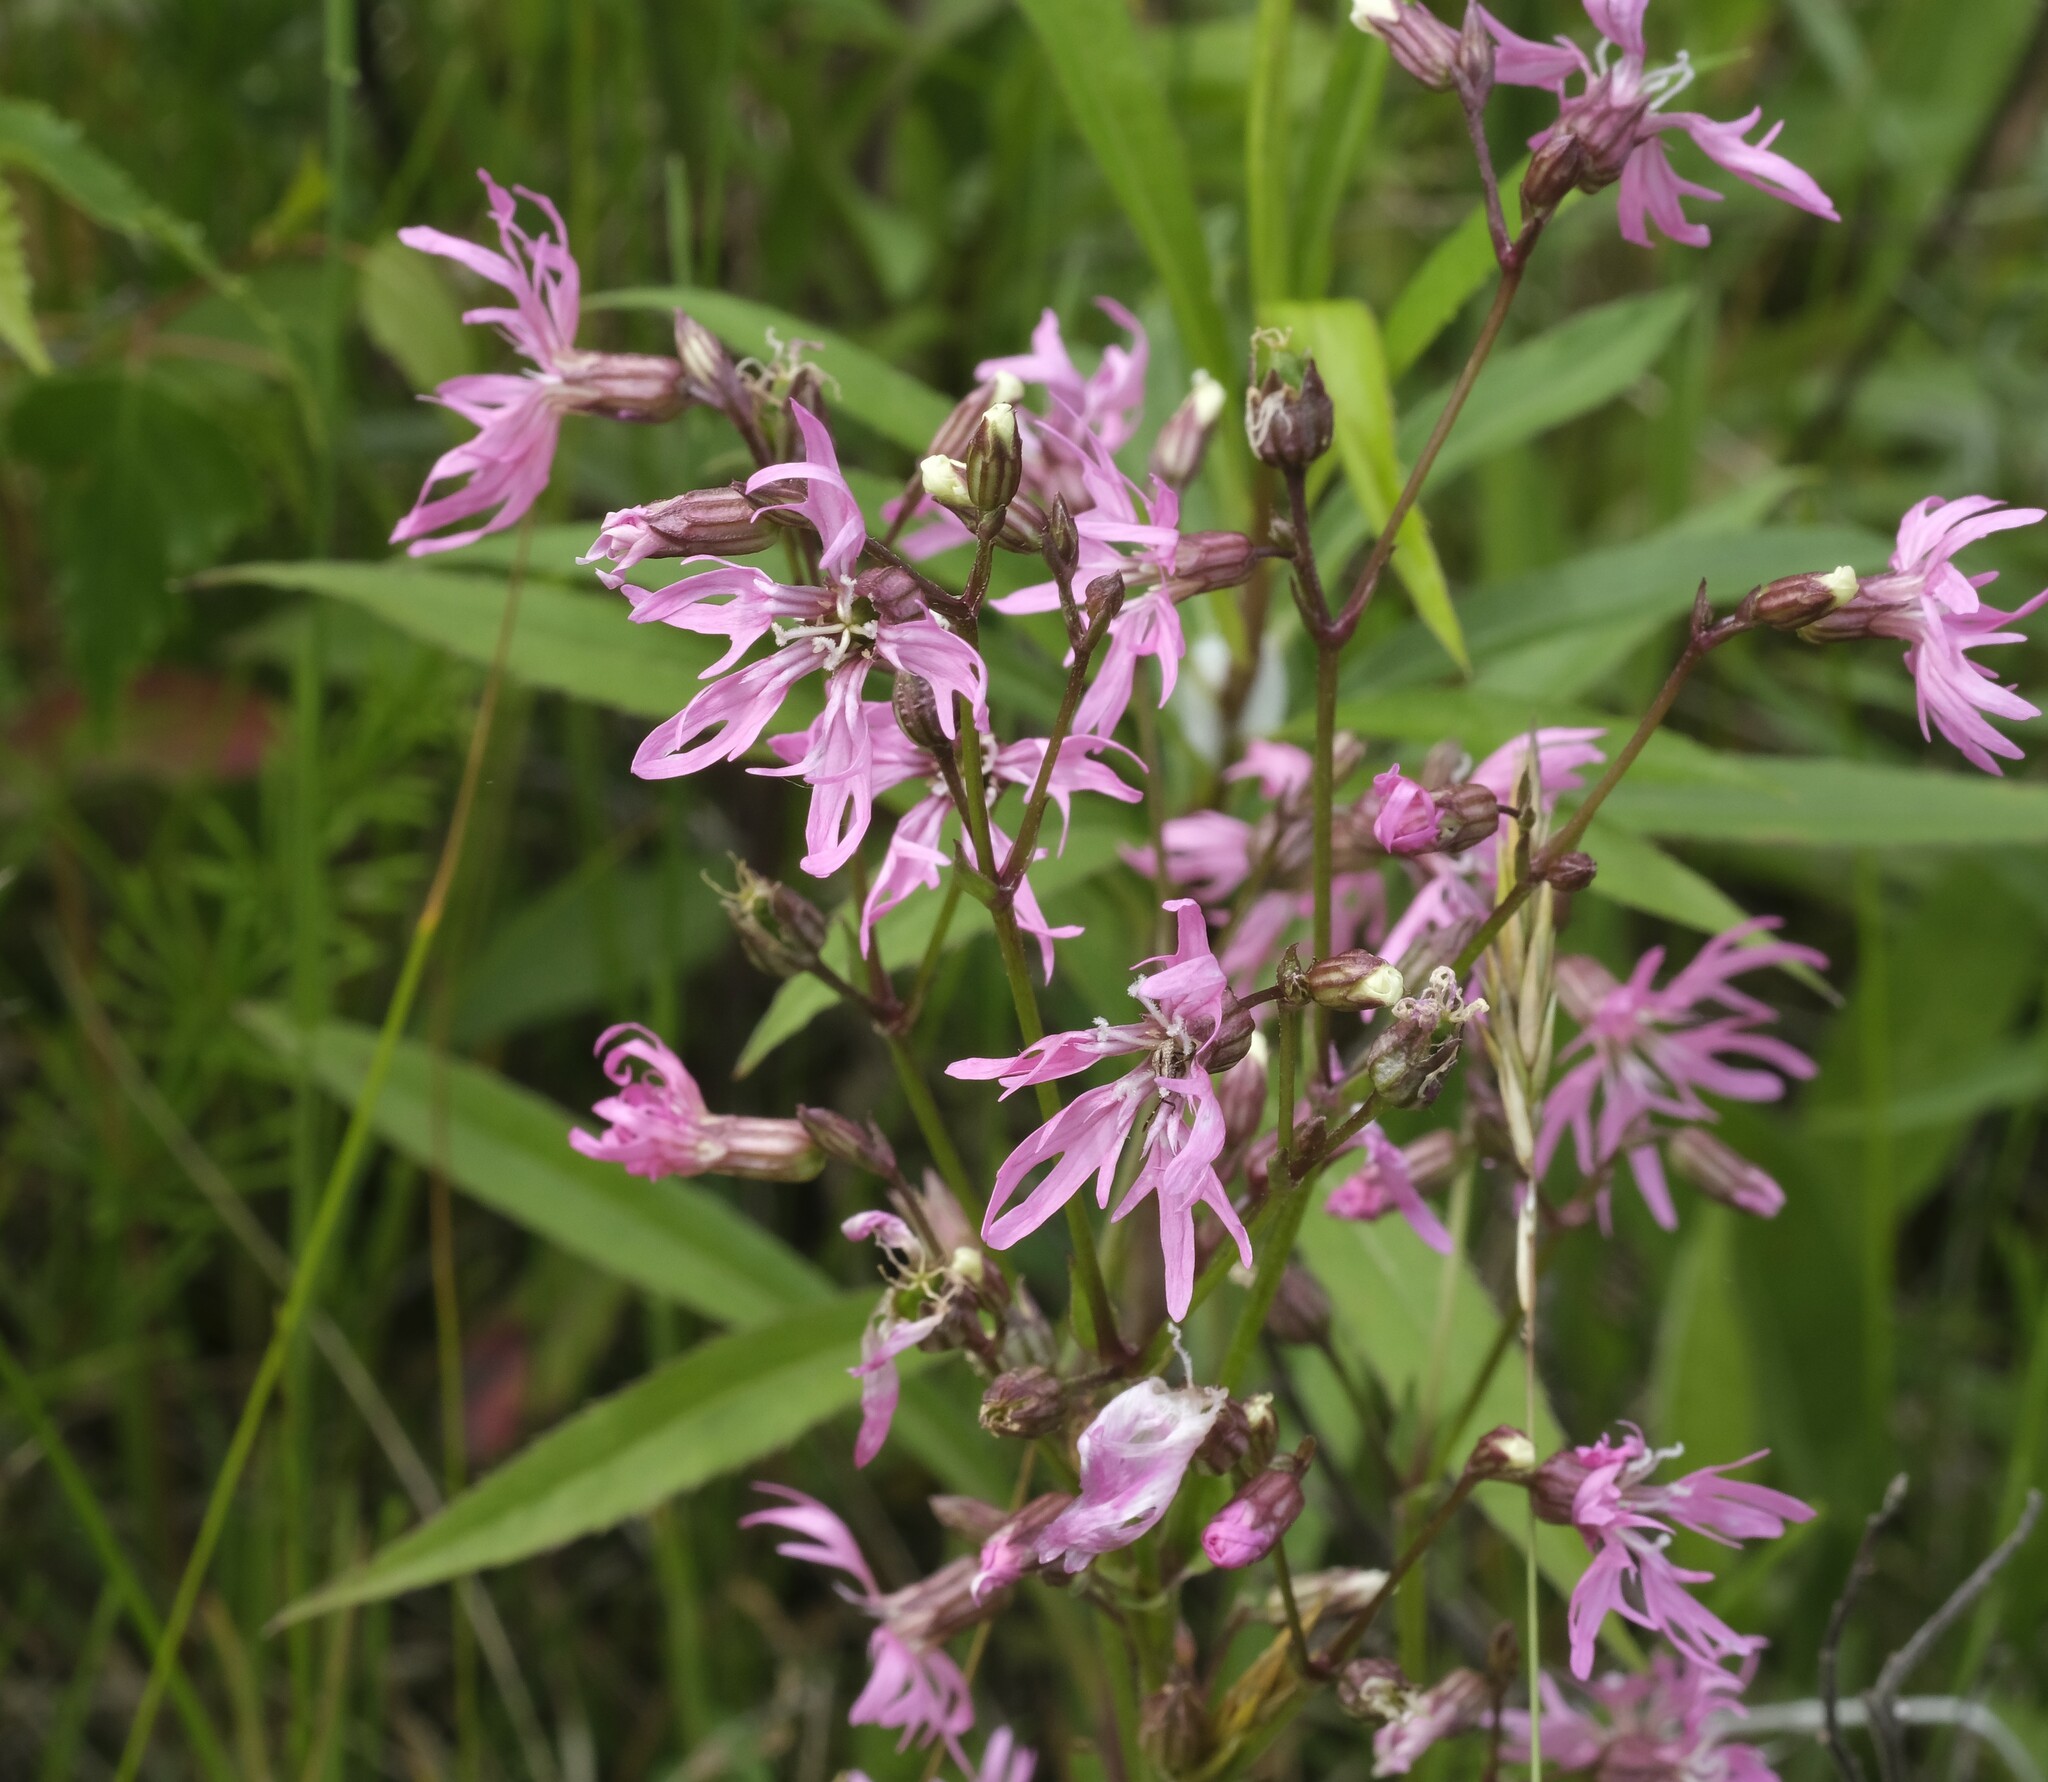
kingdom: Plantae
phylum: Tracheophyta
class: Magnoliopsida
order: Caryophyllales
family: Caryophyllaceae
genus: Silene
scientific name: Silene flos-cuculi
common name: Ragged-robin
